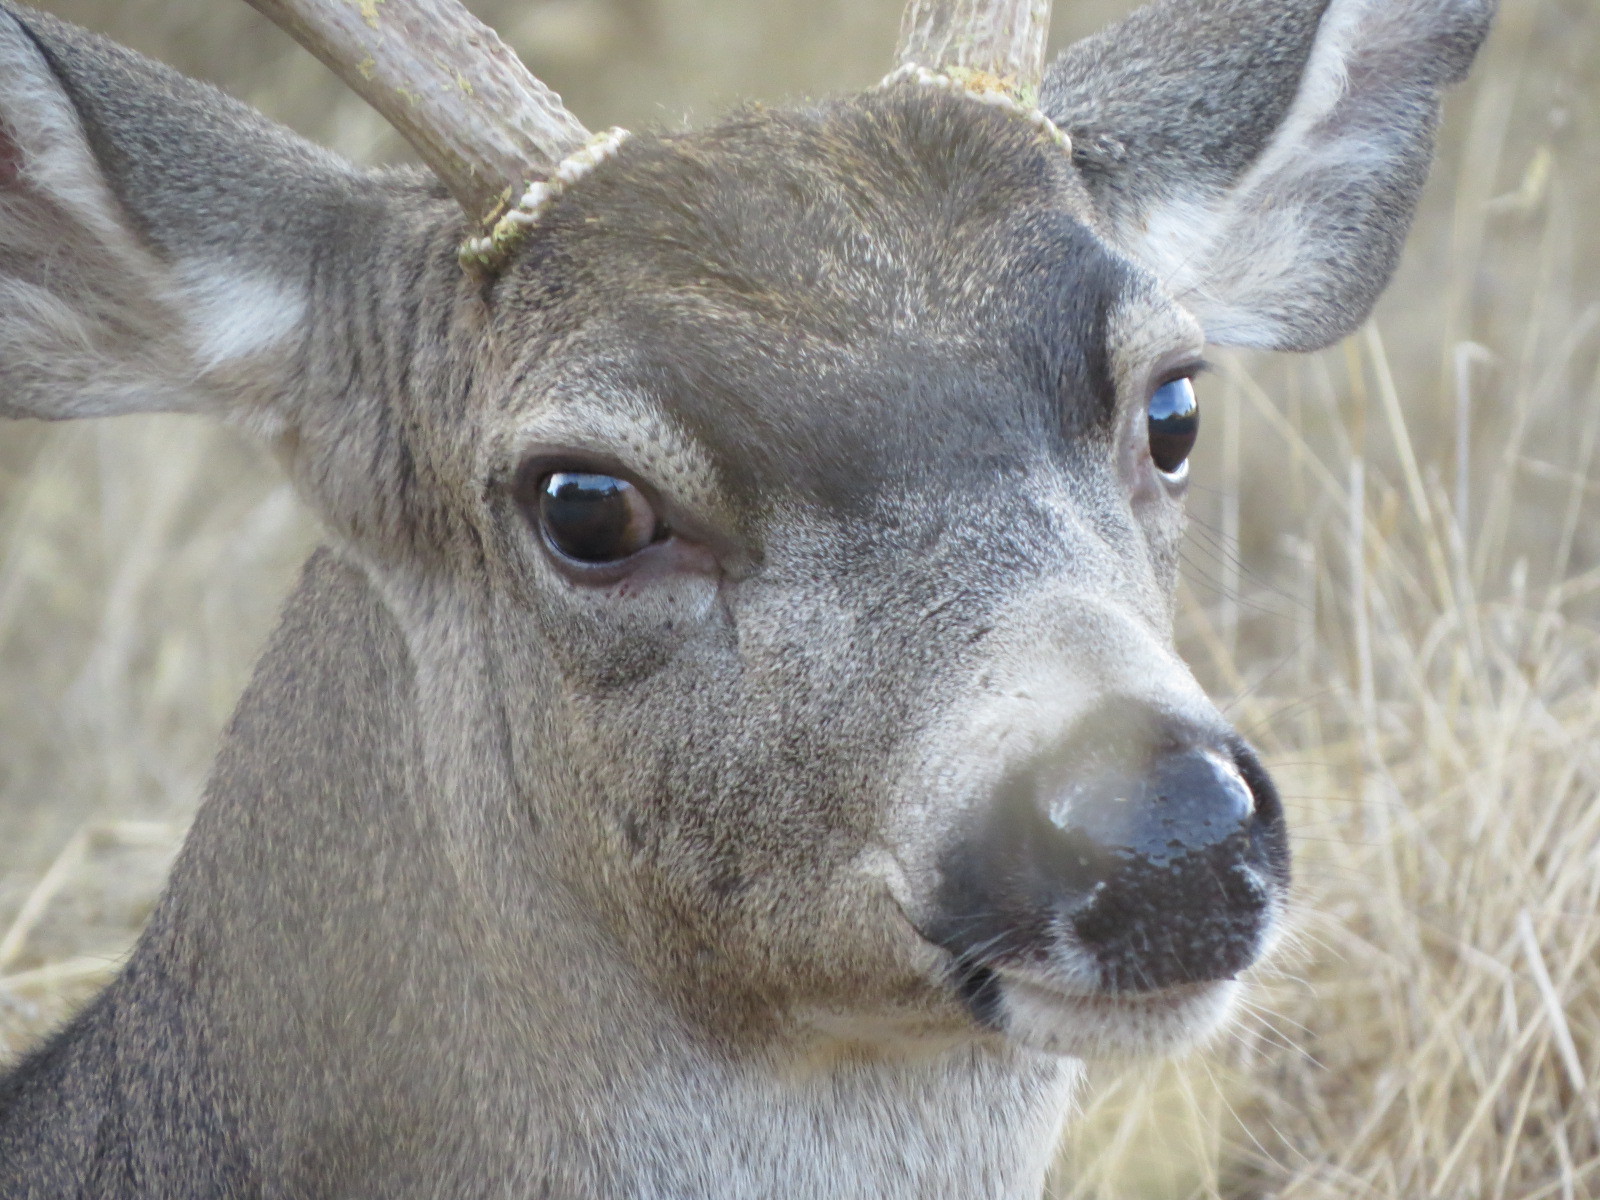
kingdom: Animalia
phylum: Chordata
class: Mammalia
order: Artiodactyla
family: Cervidae
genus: Odocoileus
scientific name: Odocoileus hemionus
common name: Mule deer
